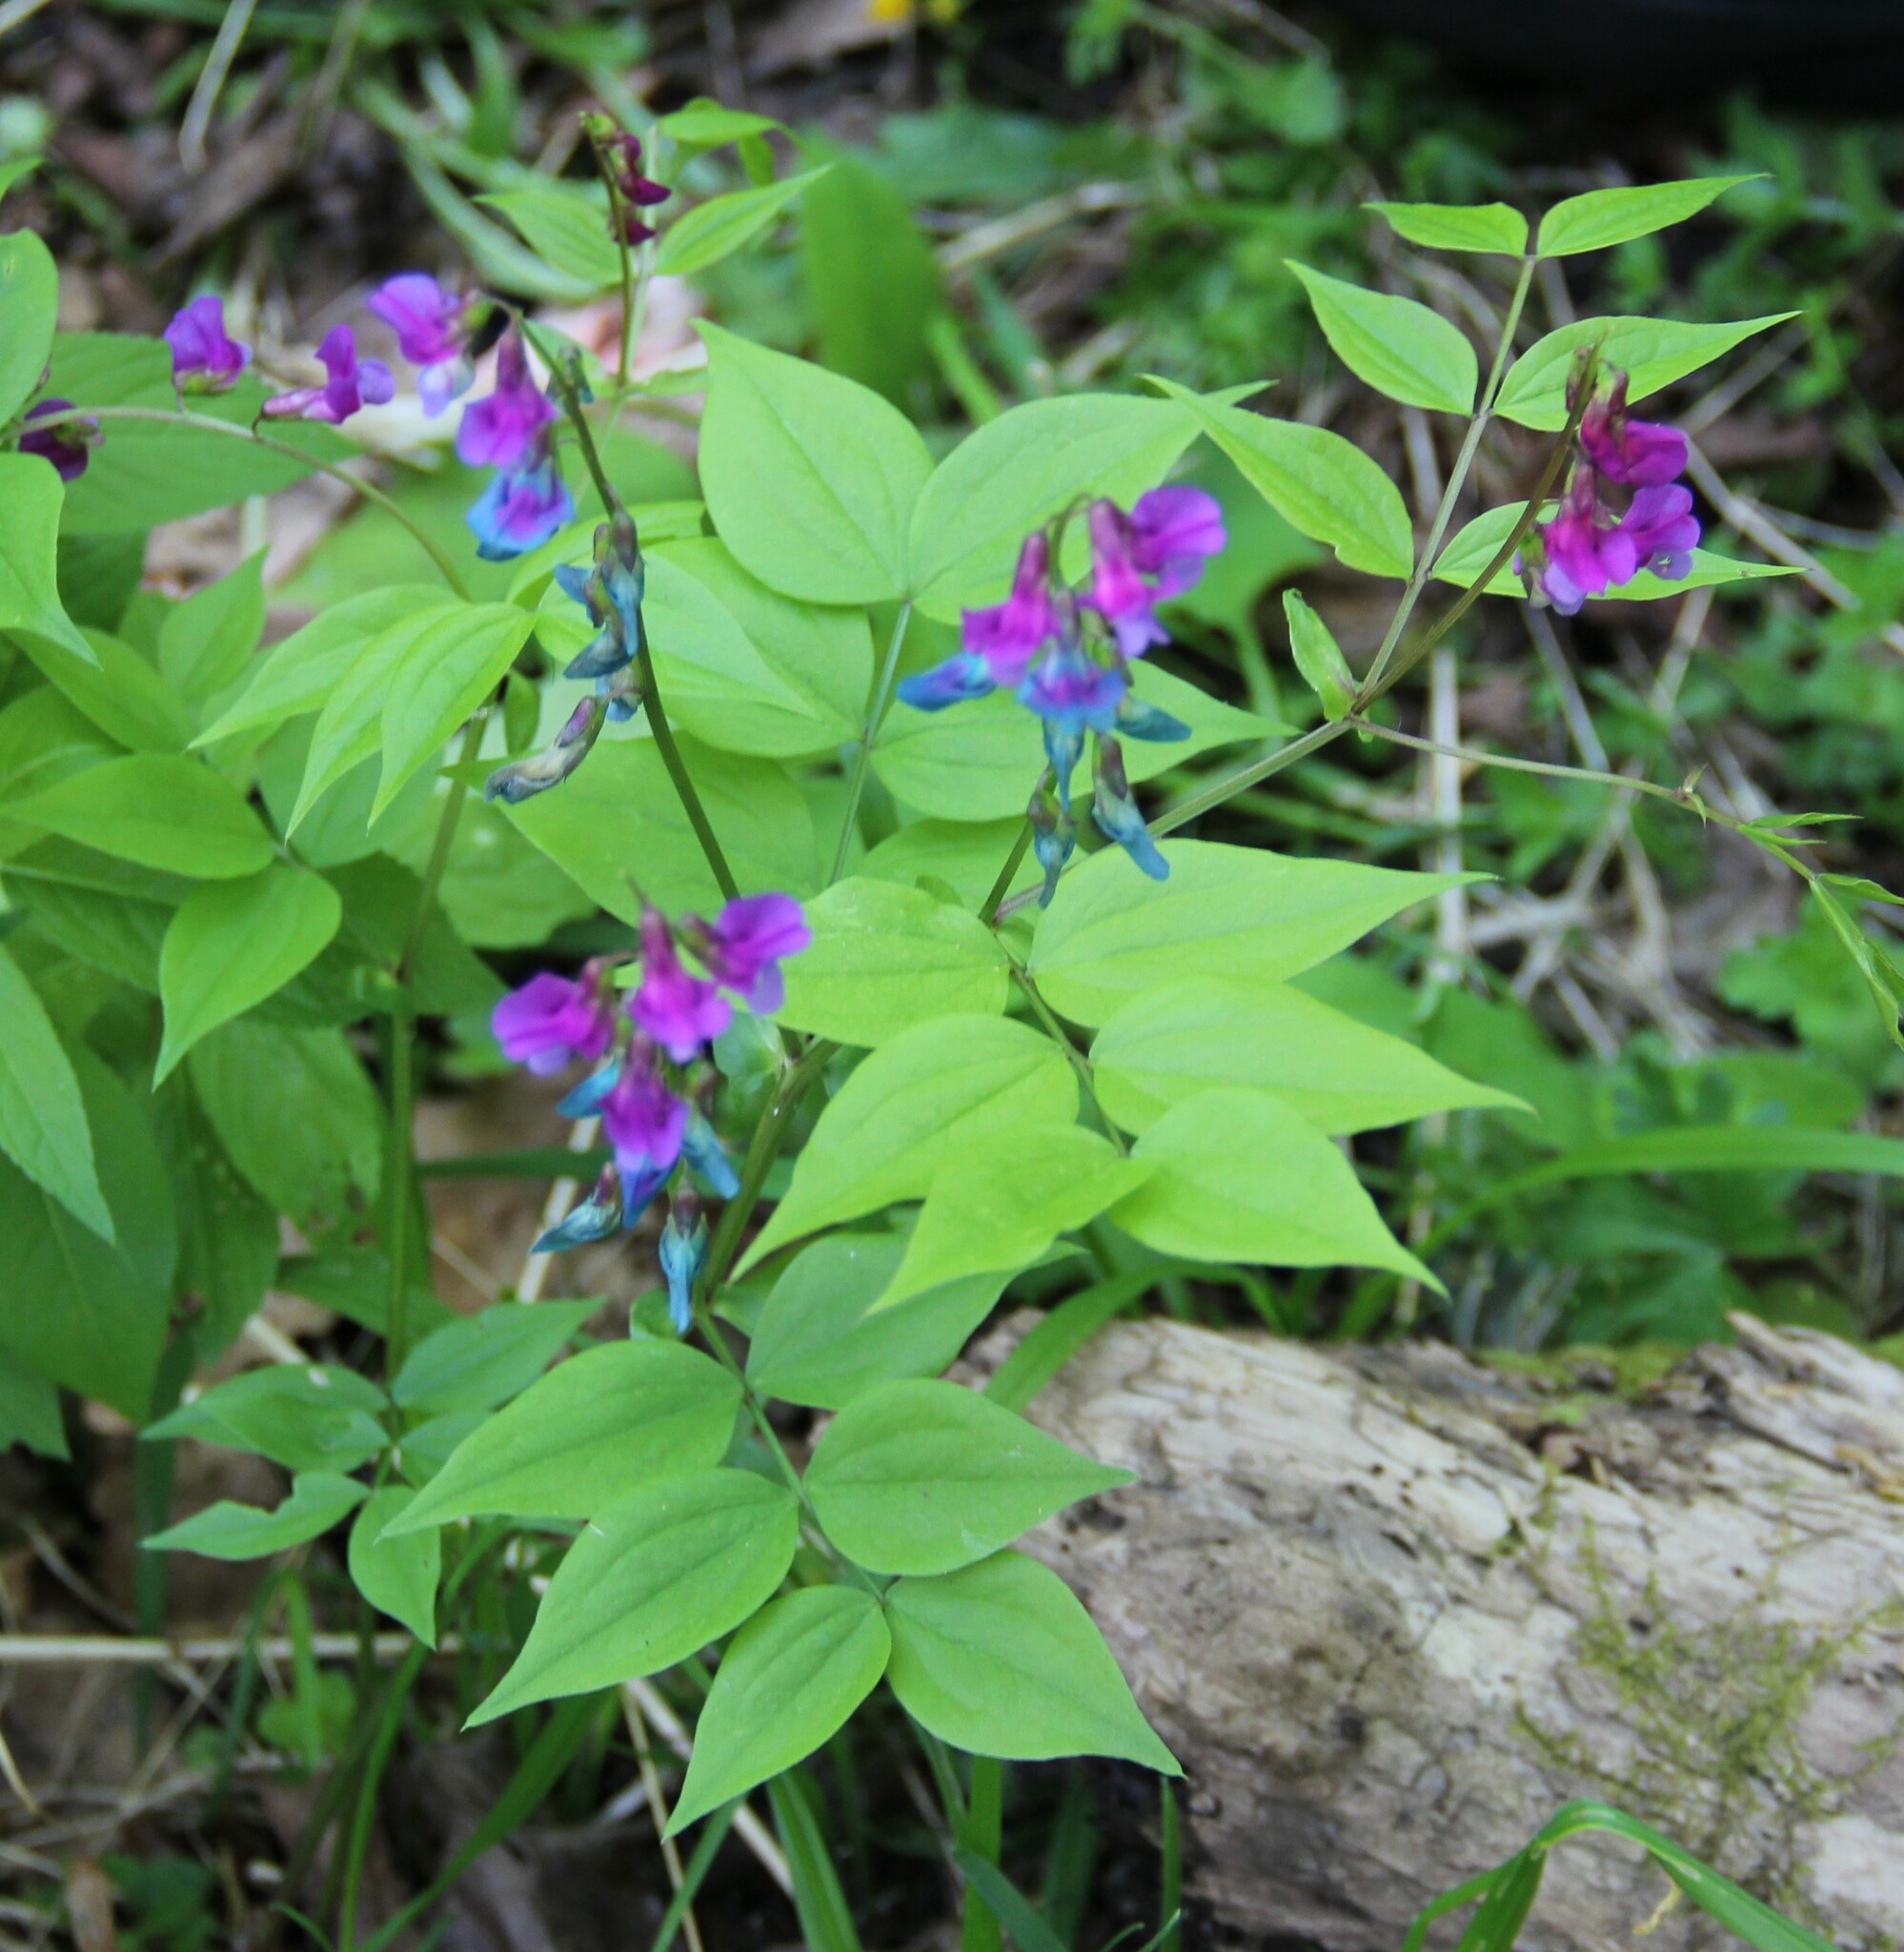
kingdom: Plantae
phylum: Tracheophyta
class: Magnoliopsida
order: Fabales
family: Fabaceae
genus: Lathyrus
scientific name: Lathyrus vernus
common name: Spring pea
